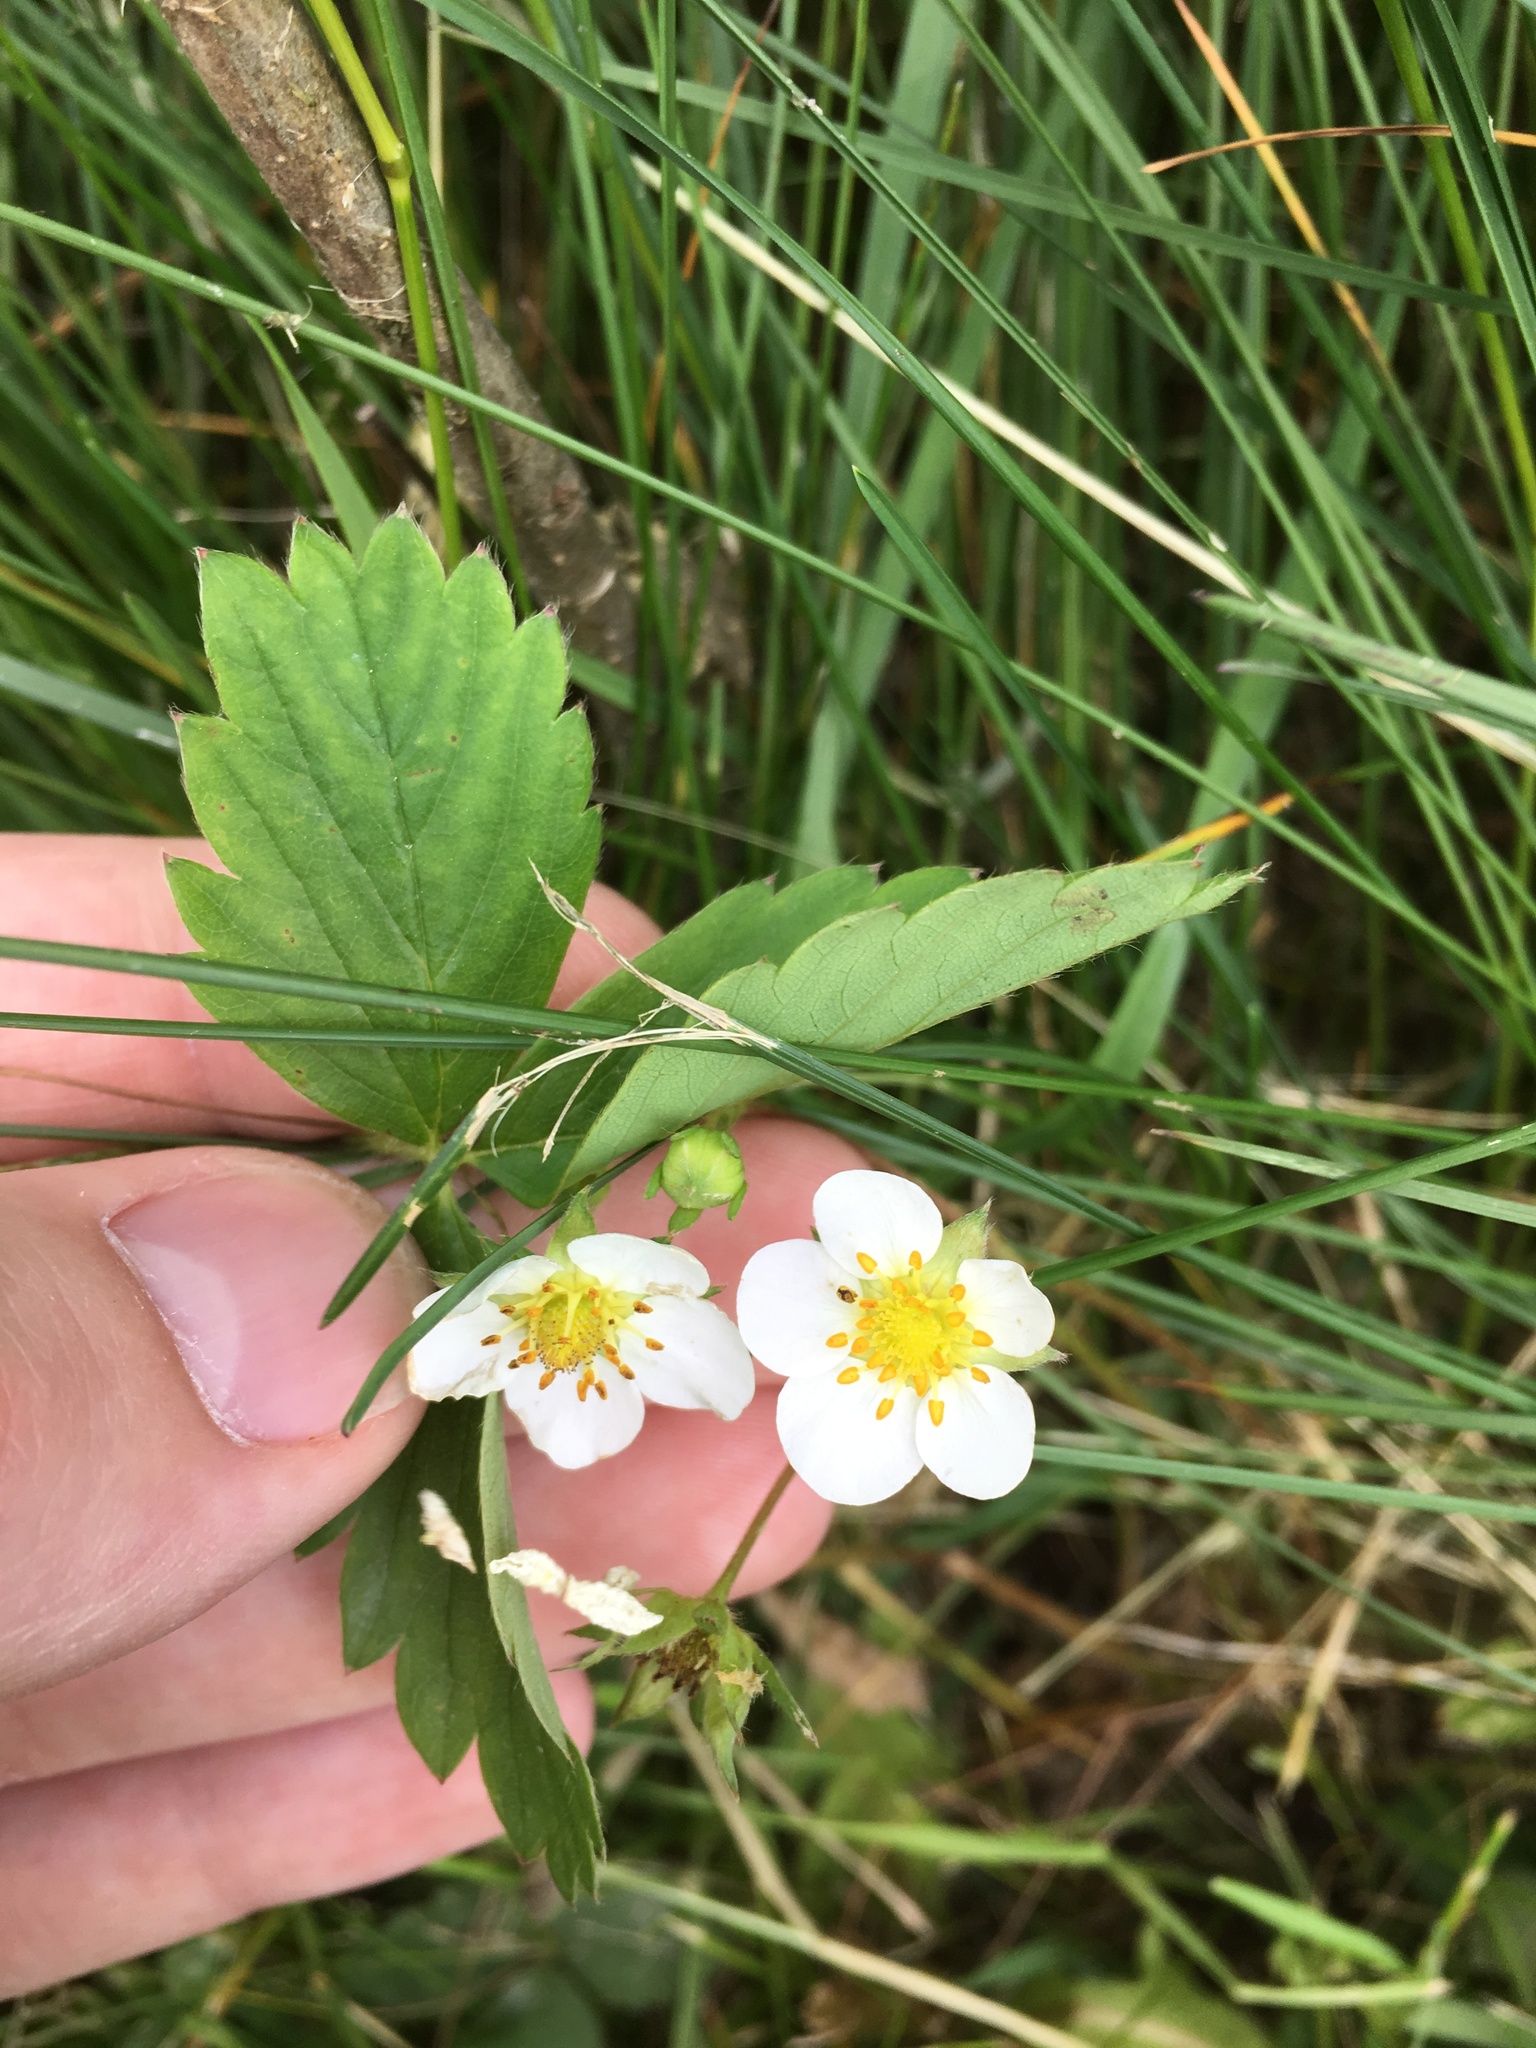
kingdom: Plantae
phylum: Tracheophyta
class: Magnoliopsida
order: Rosales
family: Rosaceae
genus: Fragaria
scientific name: Fragaria virginiana
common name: Thickleaved wild strawberry
